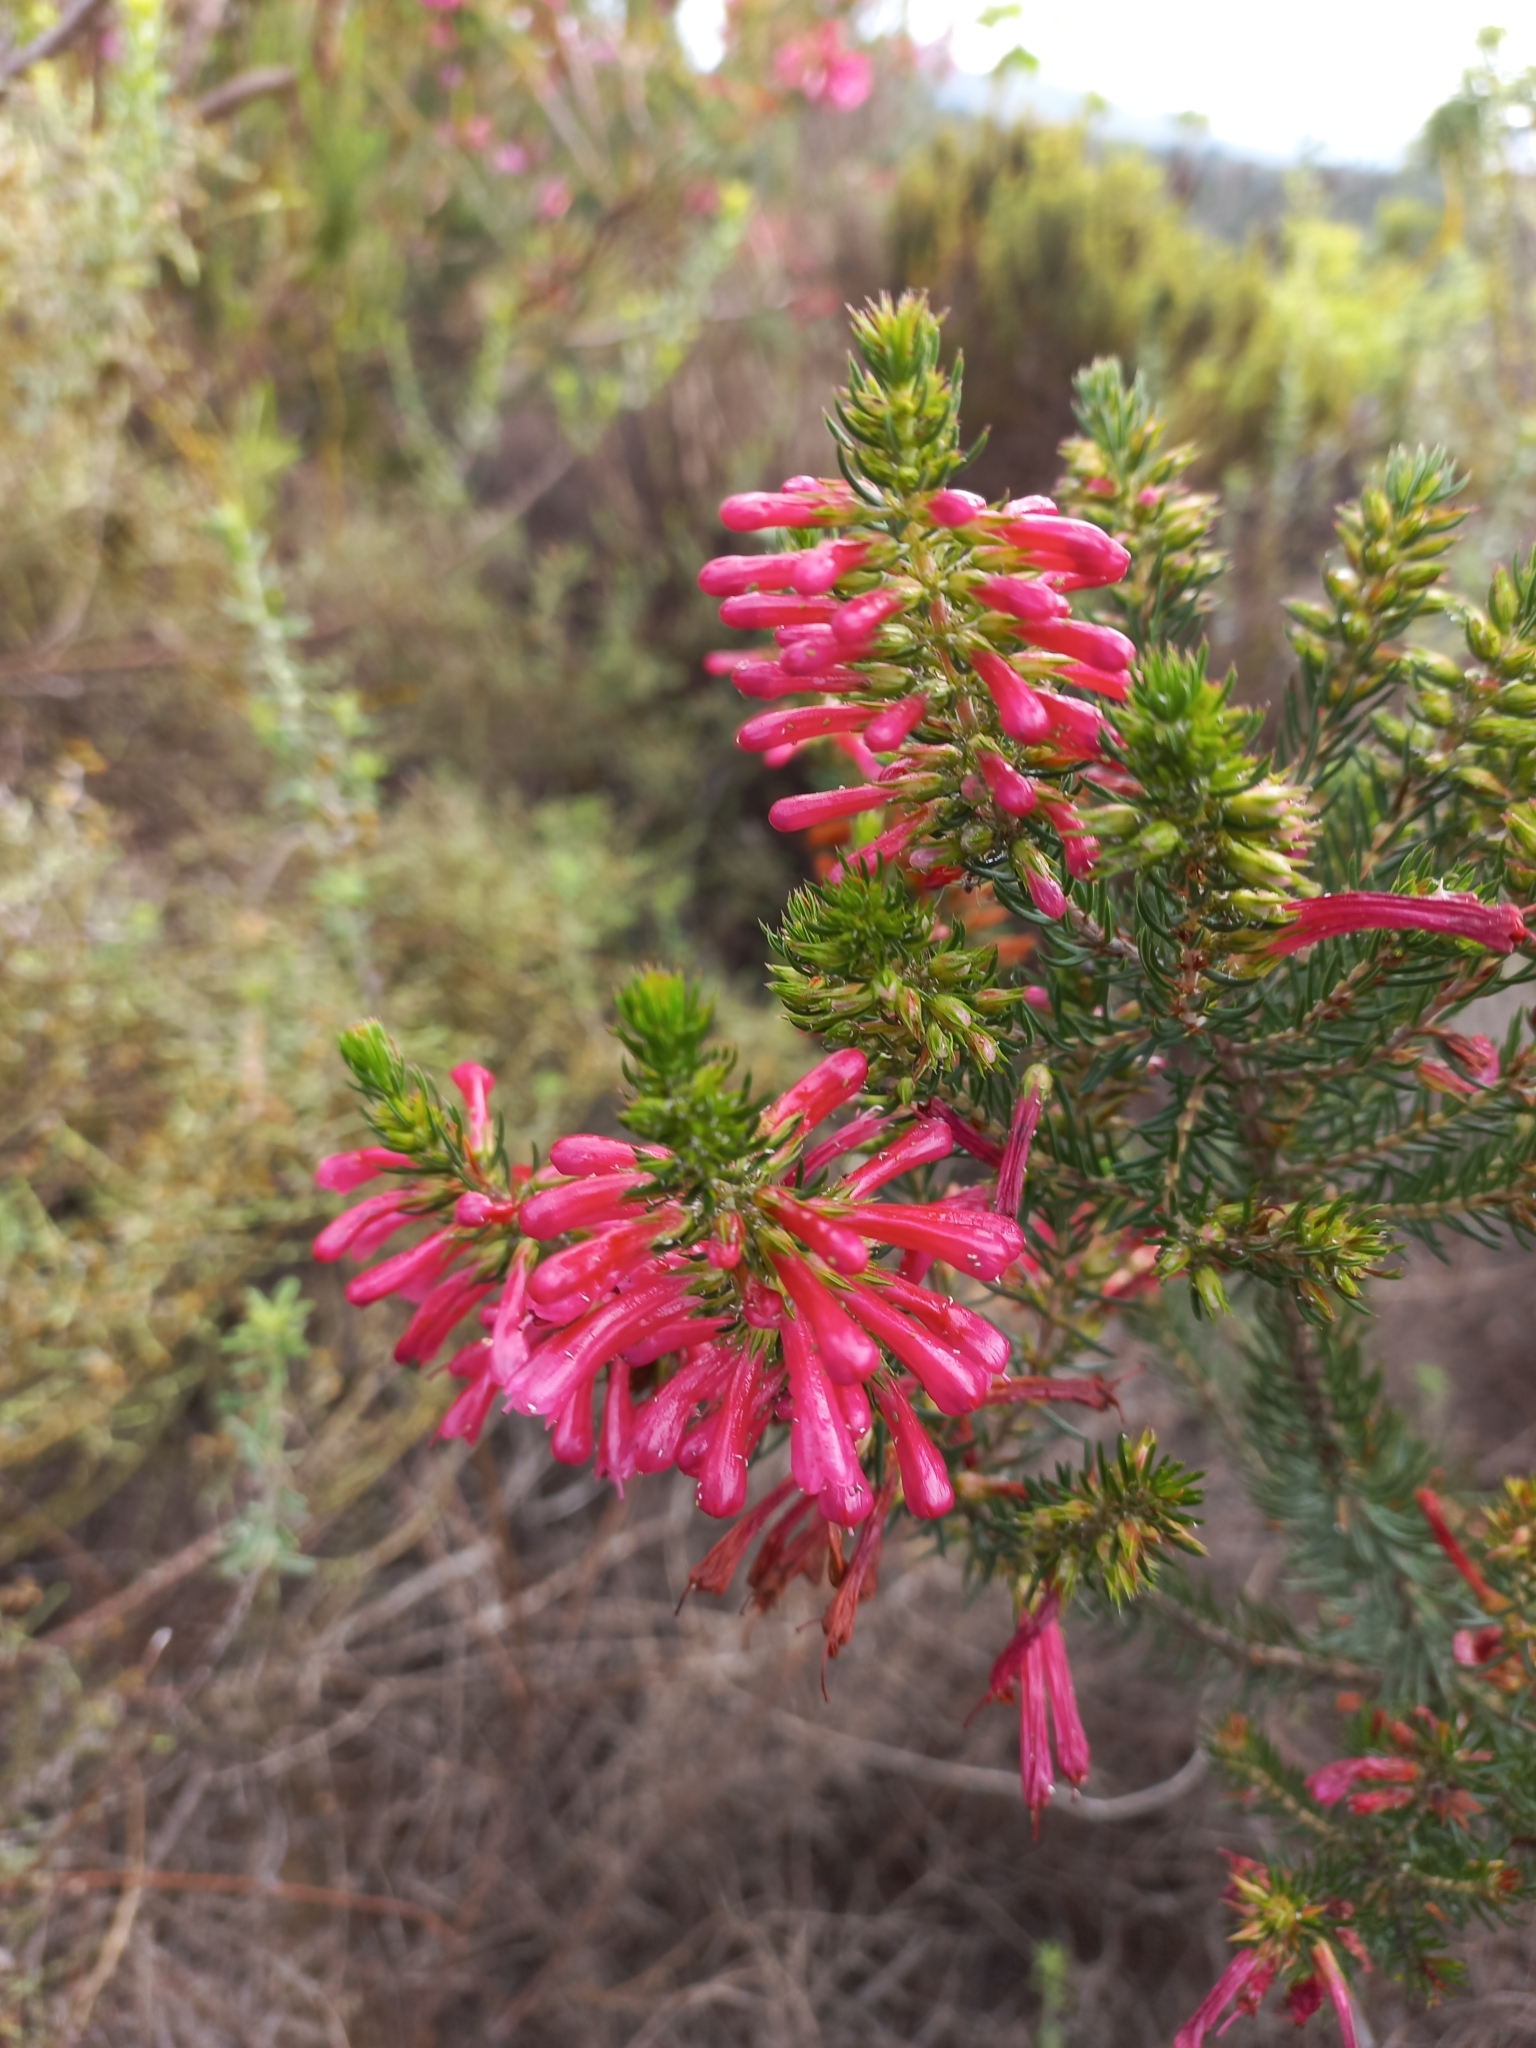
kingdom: Plantae
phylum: Tracheophyta
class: Magnoliopsida
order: Ericales
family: Ericaceae
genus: Erica
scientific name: Erica abietina
